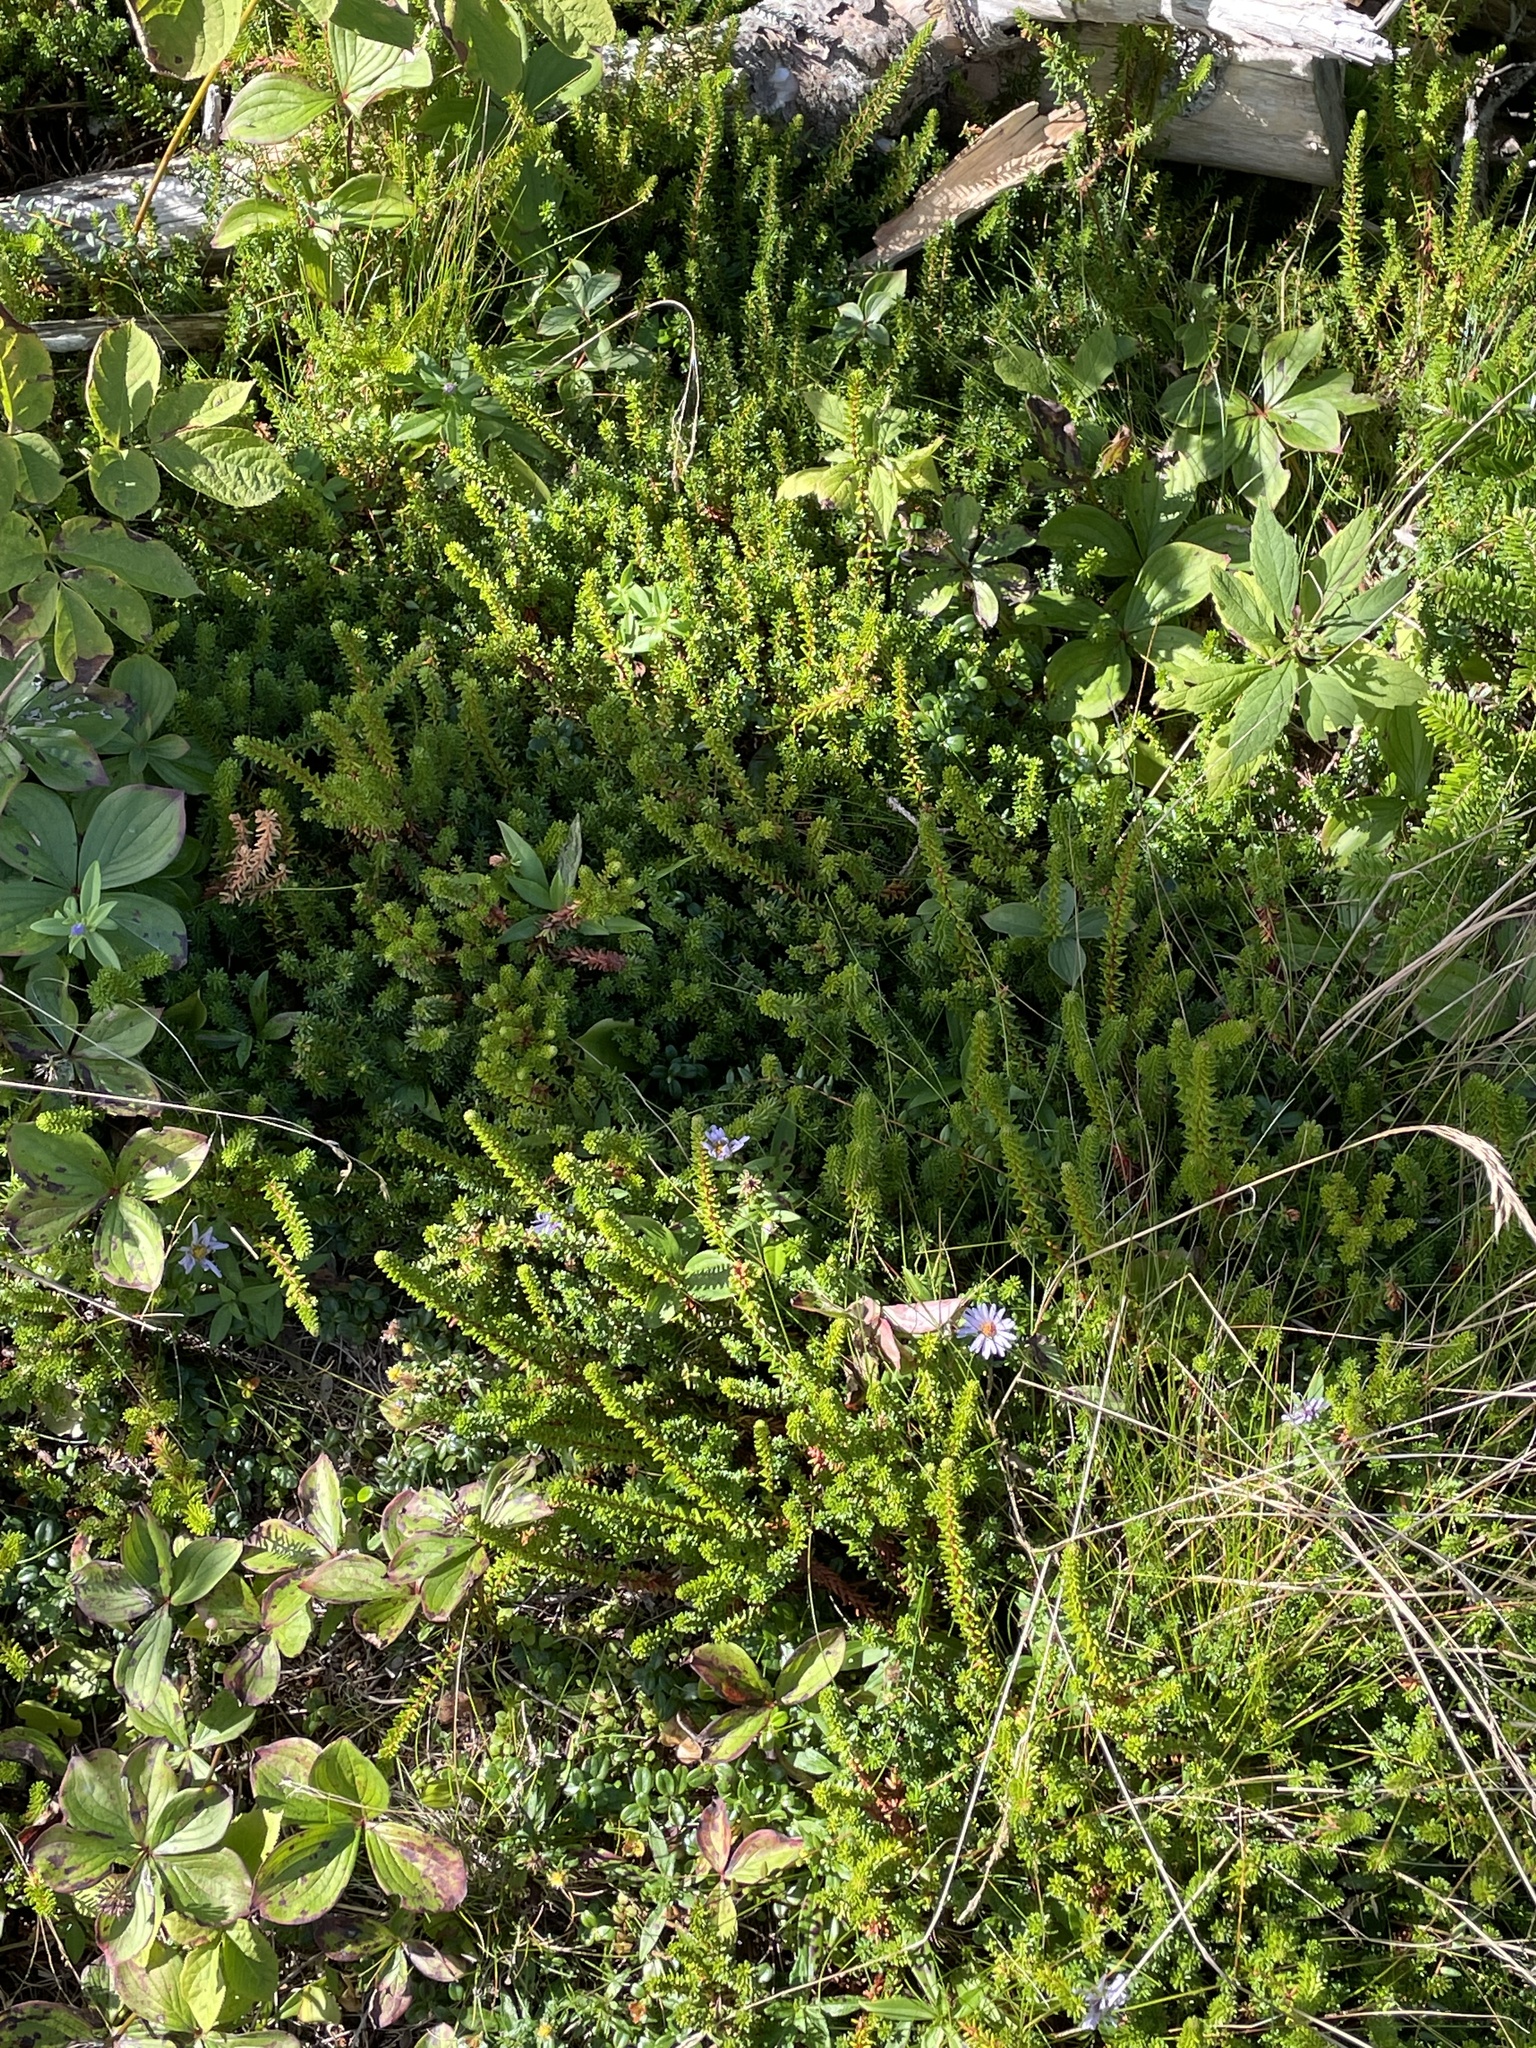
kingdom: Plantae
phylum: Tracheophyta
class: Magnoliopsida
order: Ericales
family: Ericaceae
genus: Empetrum
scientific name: Empetrum nigrum
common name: Black crowberry
